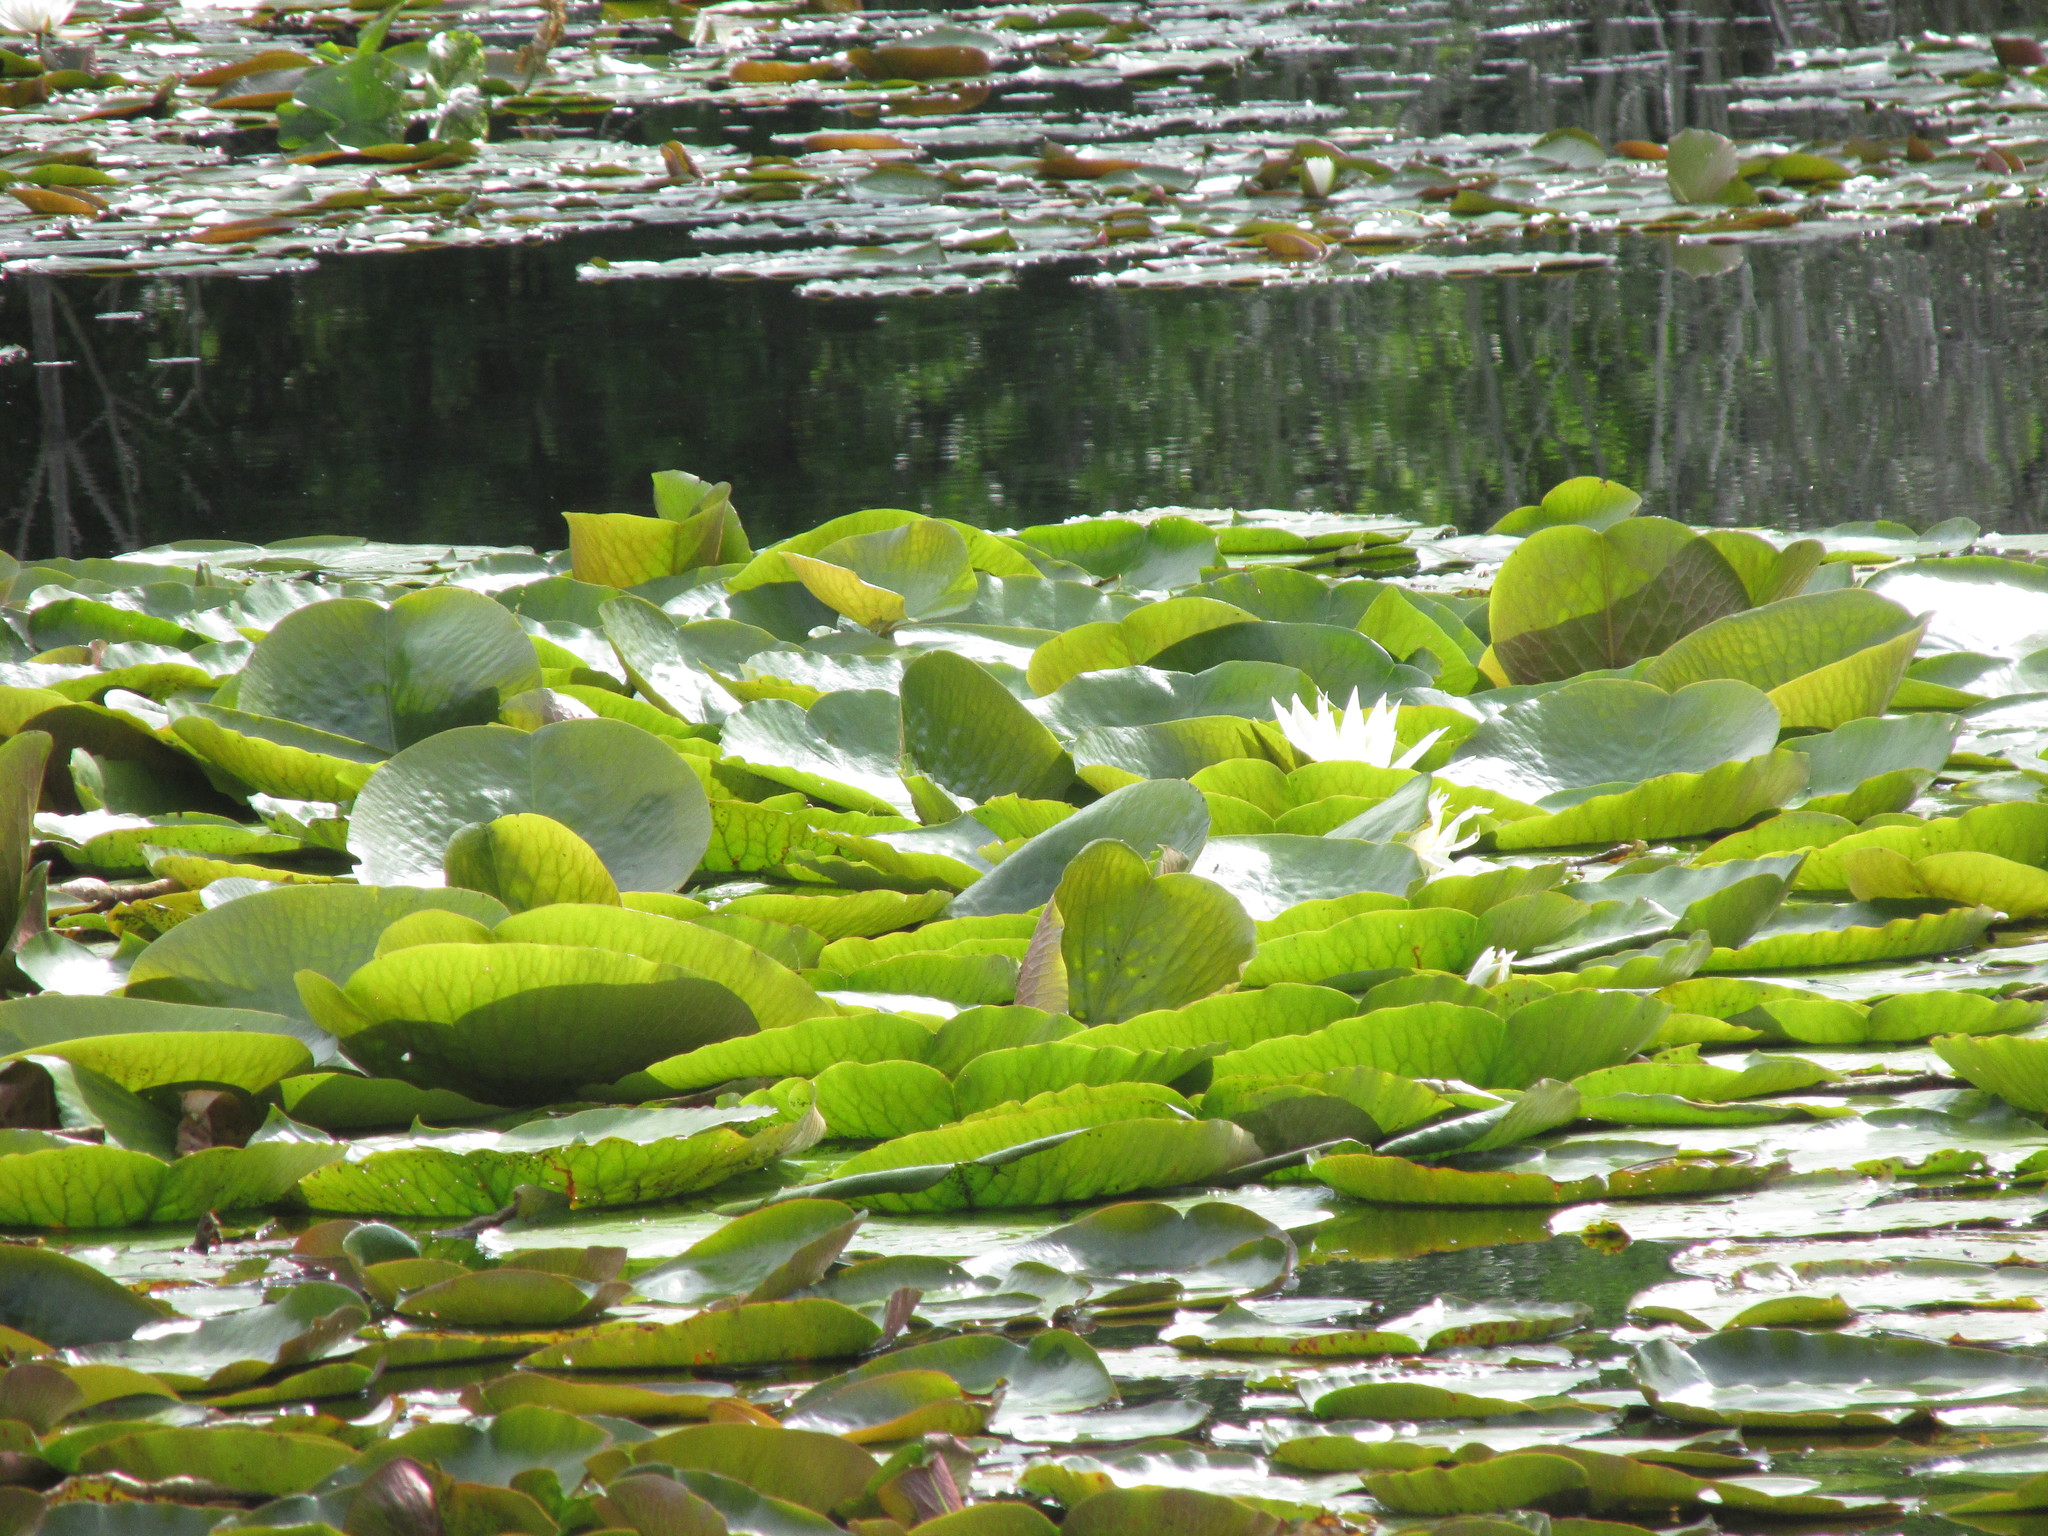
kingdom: Plantae
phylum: Tracheophyta
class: Magnoliopsida
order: Nymphaeales
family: Nymphaeaceae
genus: Nymphaea
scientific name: Nymphaea odorata
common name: Fragrant water-lily
